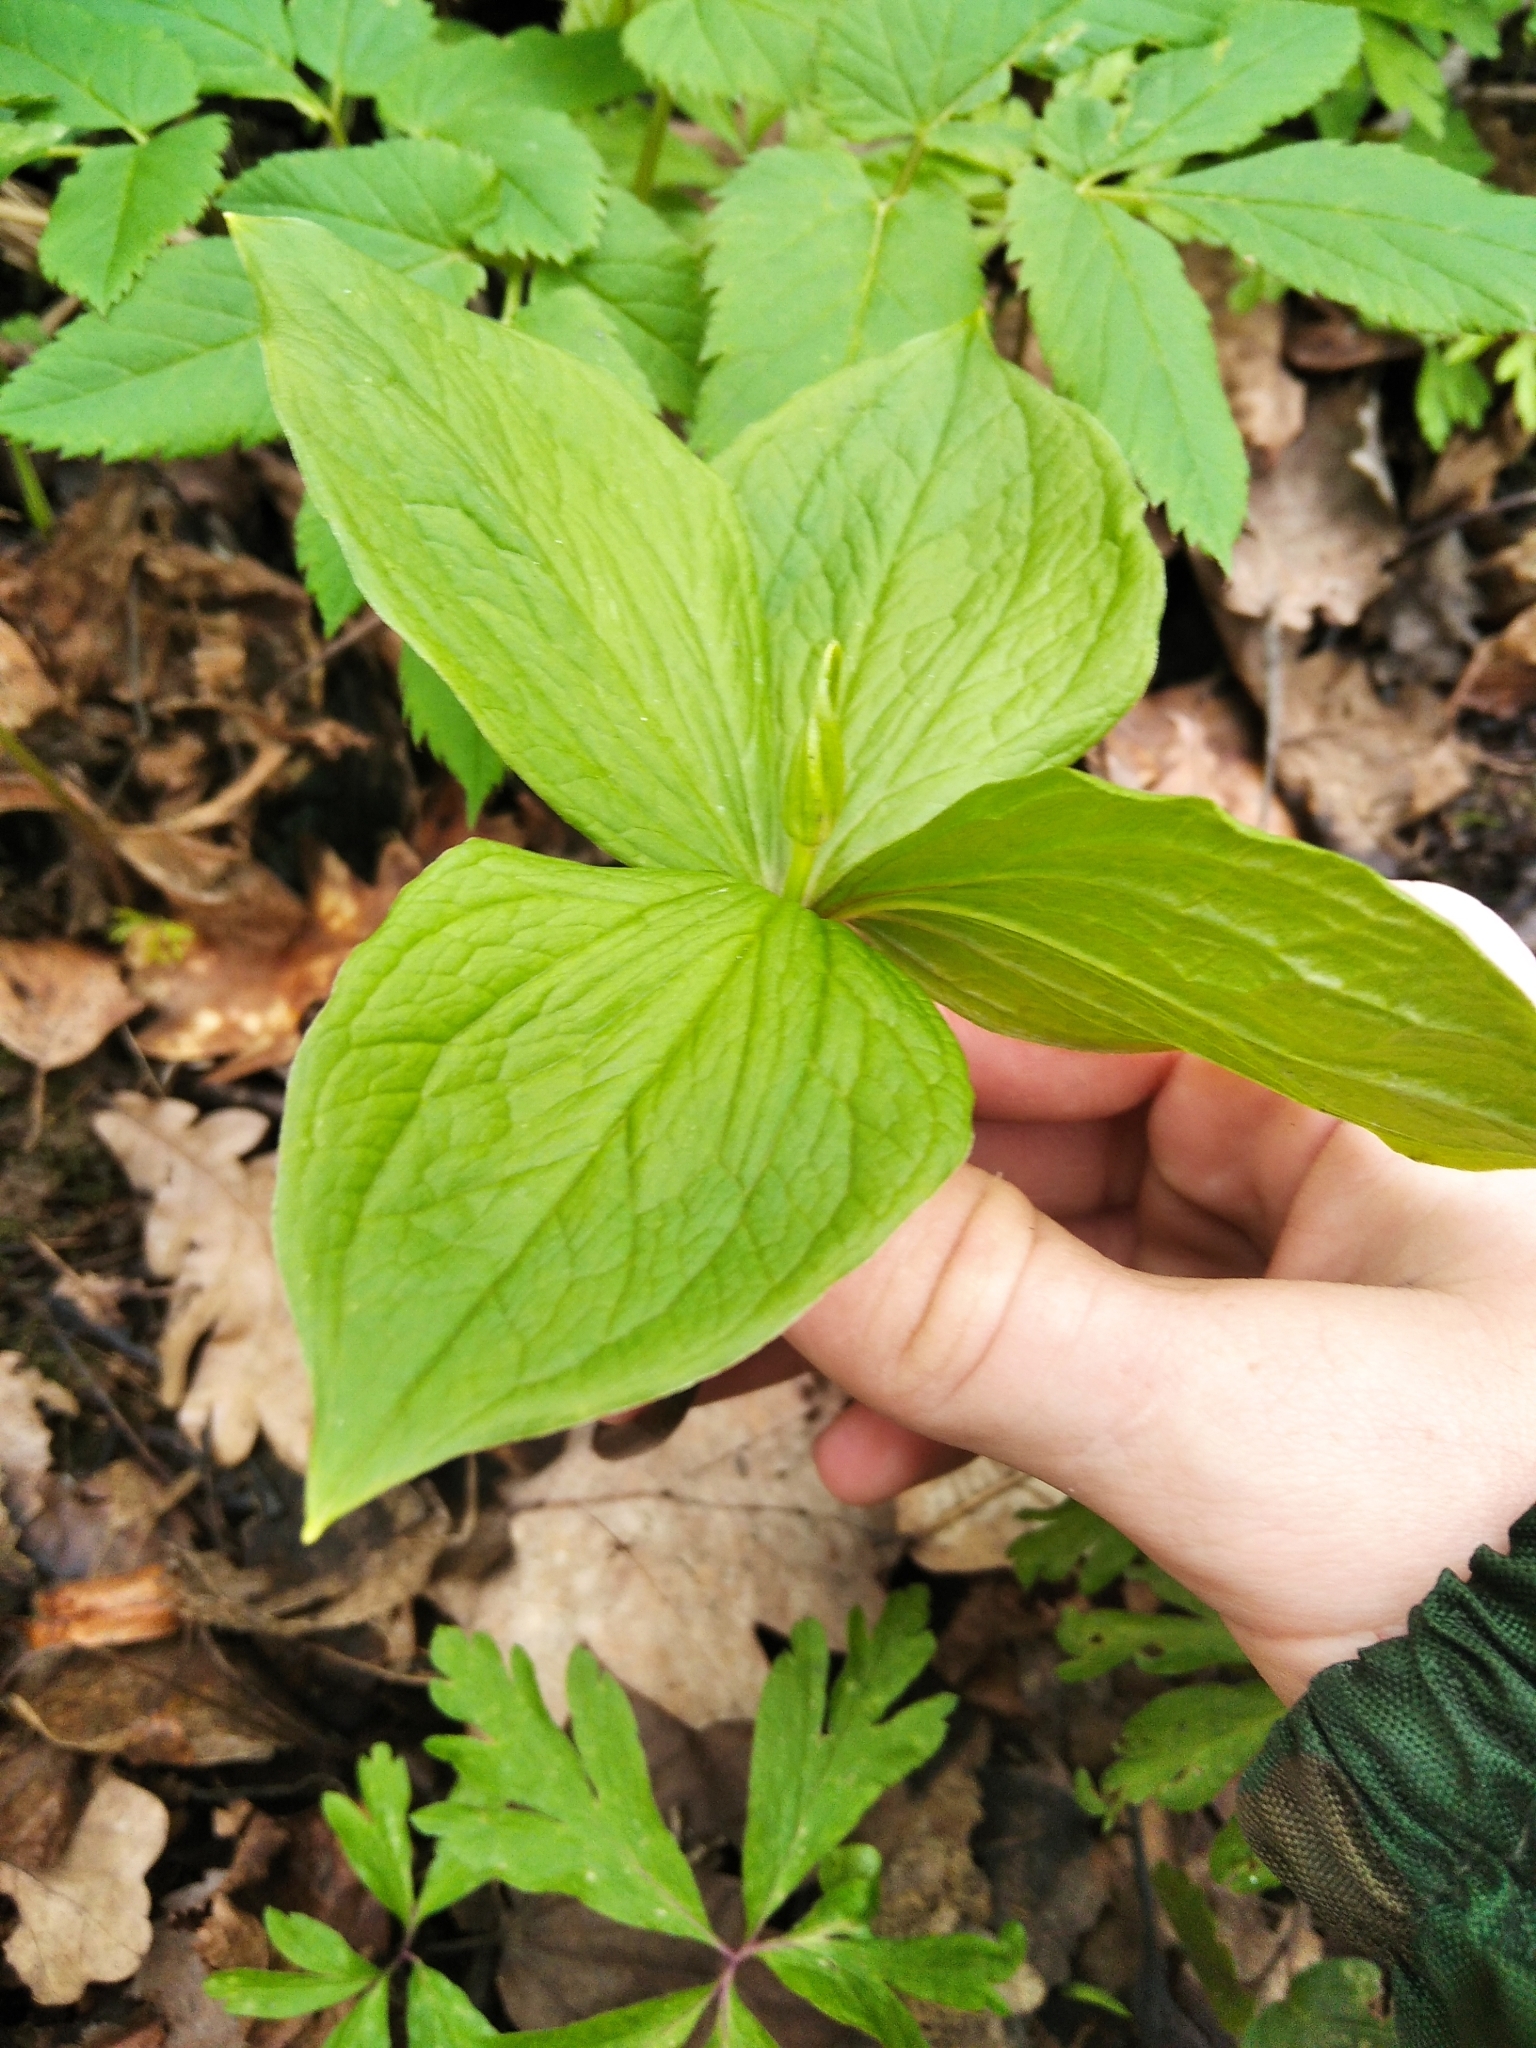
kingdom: Plantae
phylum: Tracheophyta
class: Liliopsida
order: Liliales
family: Melanthiaceae
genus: Paris
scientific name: Paris quadrifolia
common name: Herb-paris
